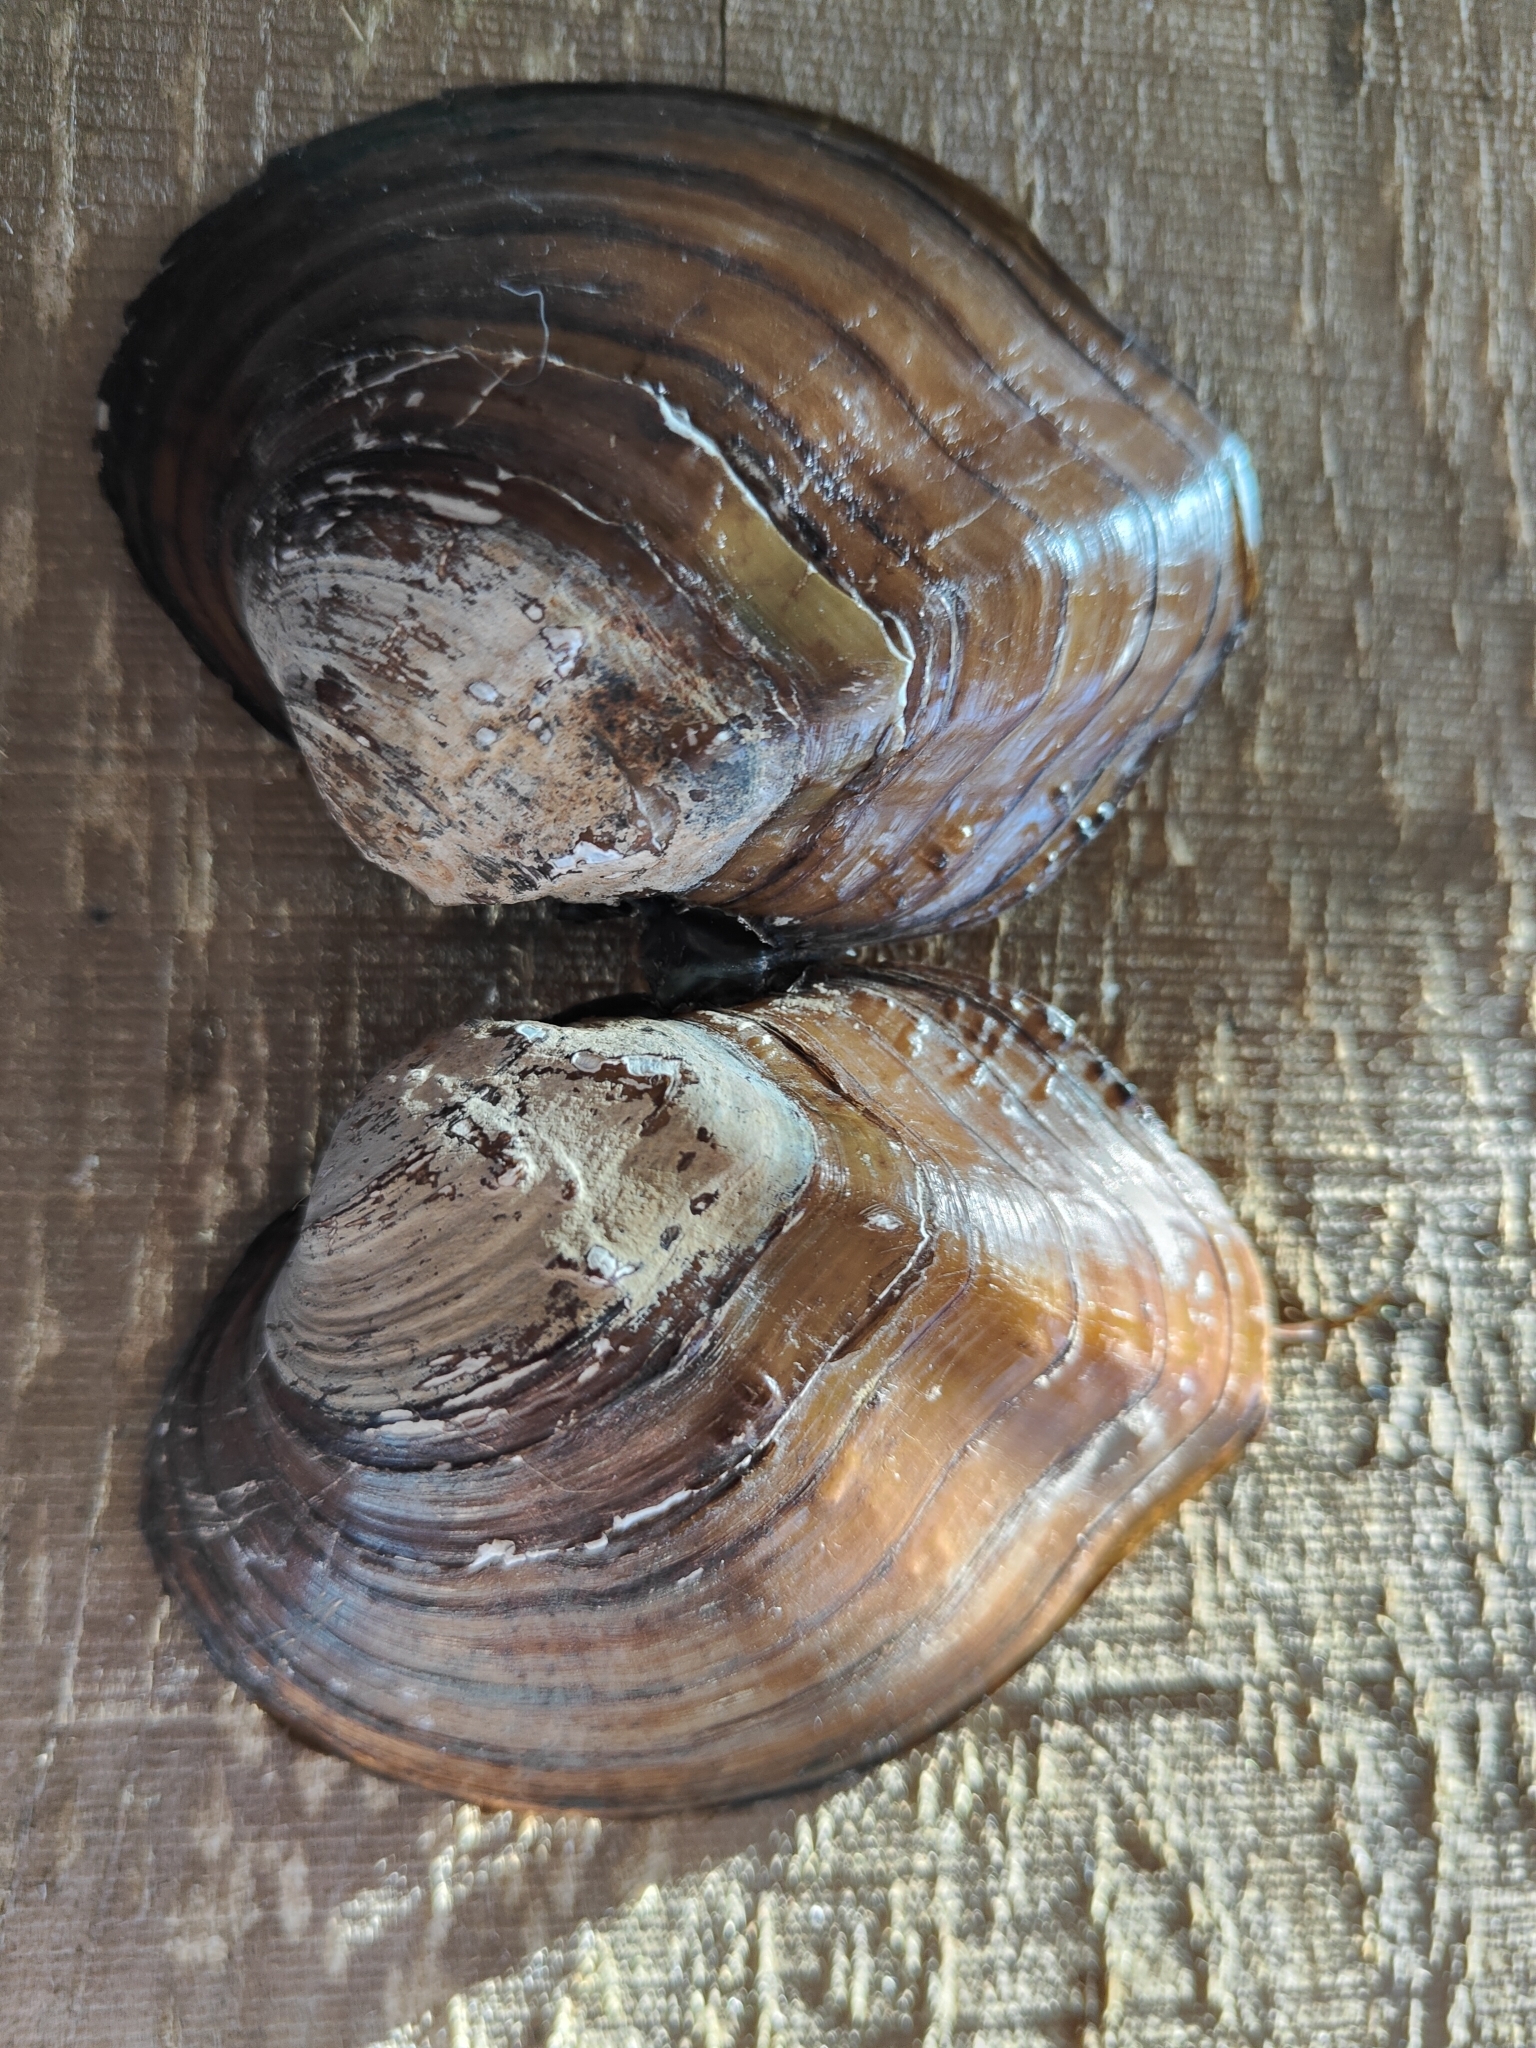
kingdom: Animalia
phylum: Mollusca
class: Bivalvia
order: Unionida
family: Unionidae
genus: Quadrula
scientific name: Quadrula quadrula
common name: Mapleleaf
